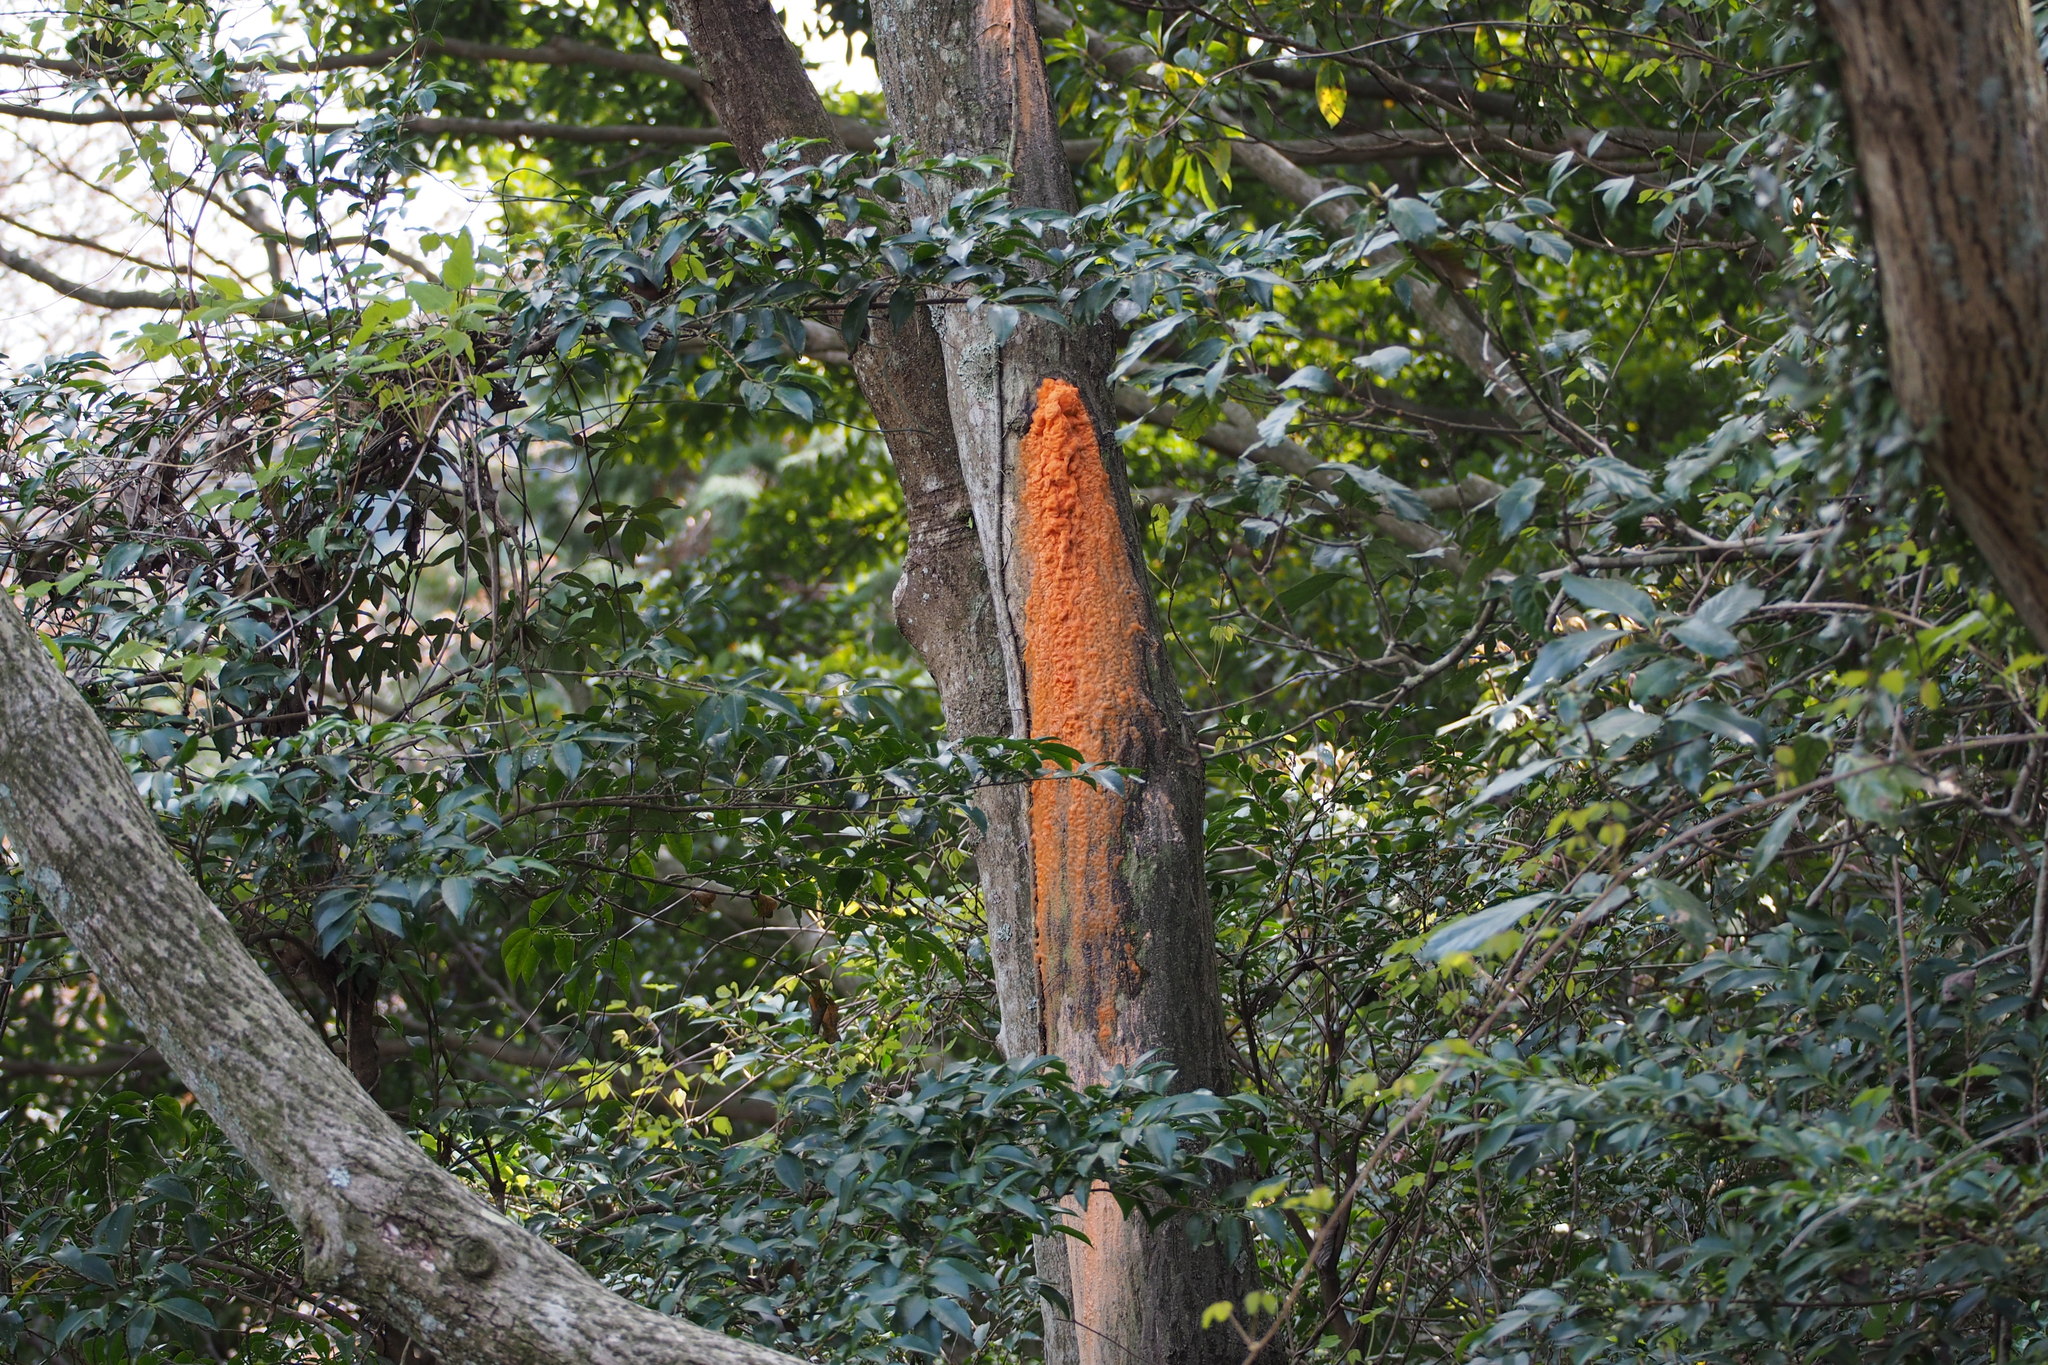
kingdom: Fungi
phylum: Basidiomycota
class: Tremellomycetes
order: Cystofilobasidiales
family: Cystofilobasidiaceae
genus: Cystofilobasidium
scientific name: Cystofilobasidium macerans
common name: Sap yeast
